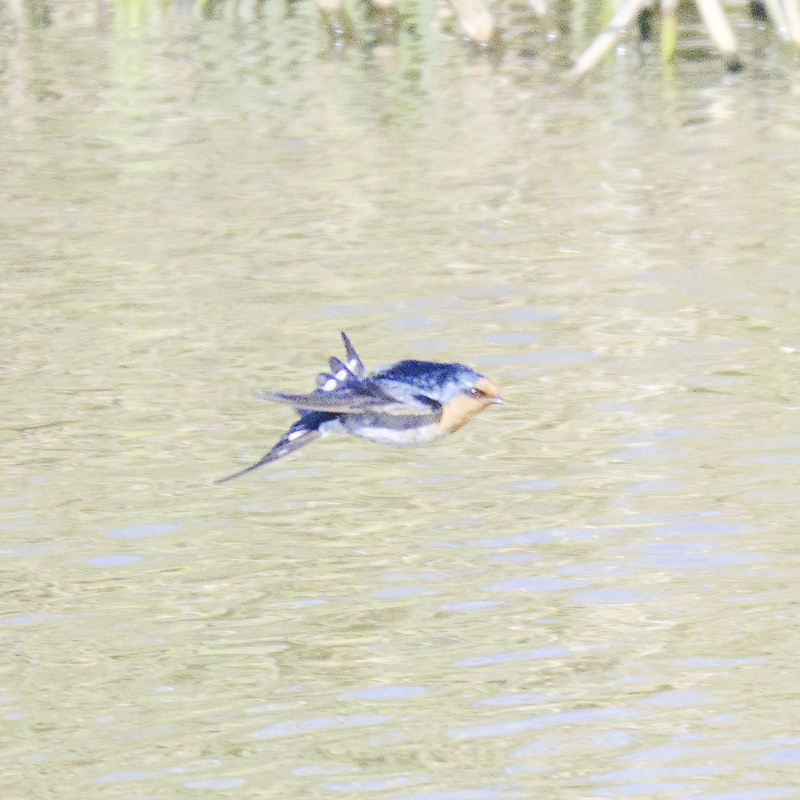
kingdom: Animalia
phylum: Chordata
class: Aves
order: Passeriformes
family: Hirundinidae
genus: Hirundo
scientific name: Hirundo neoxena
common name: Welcome swallow
